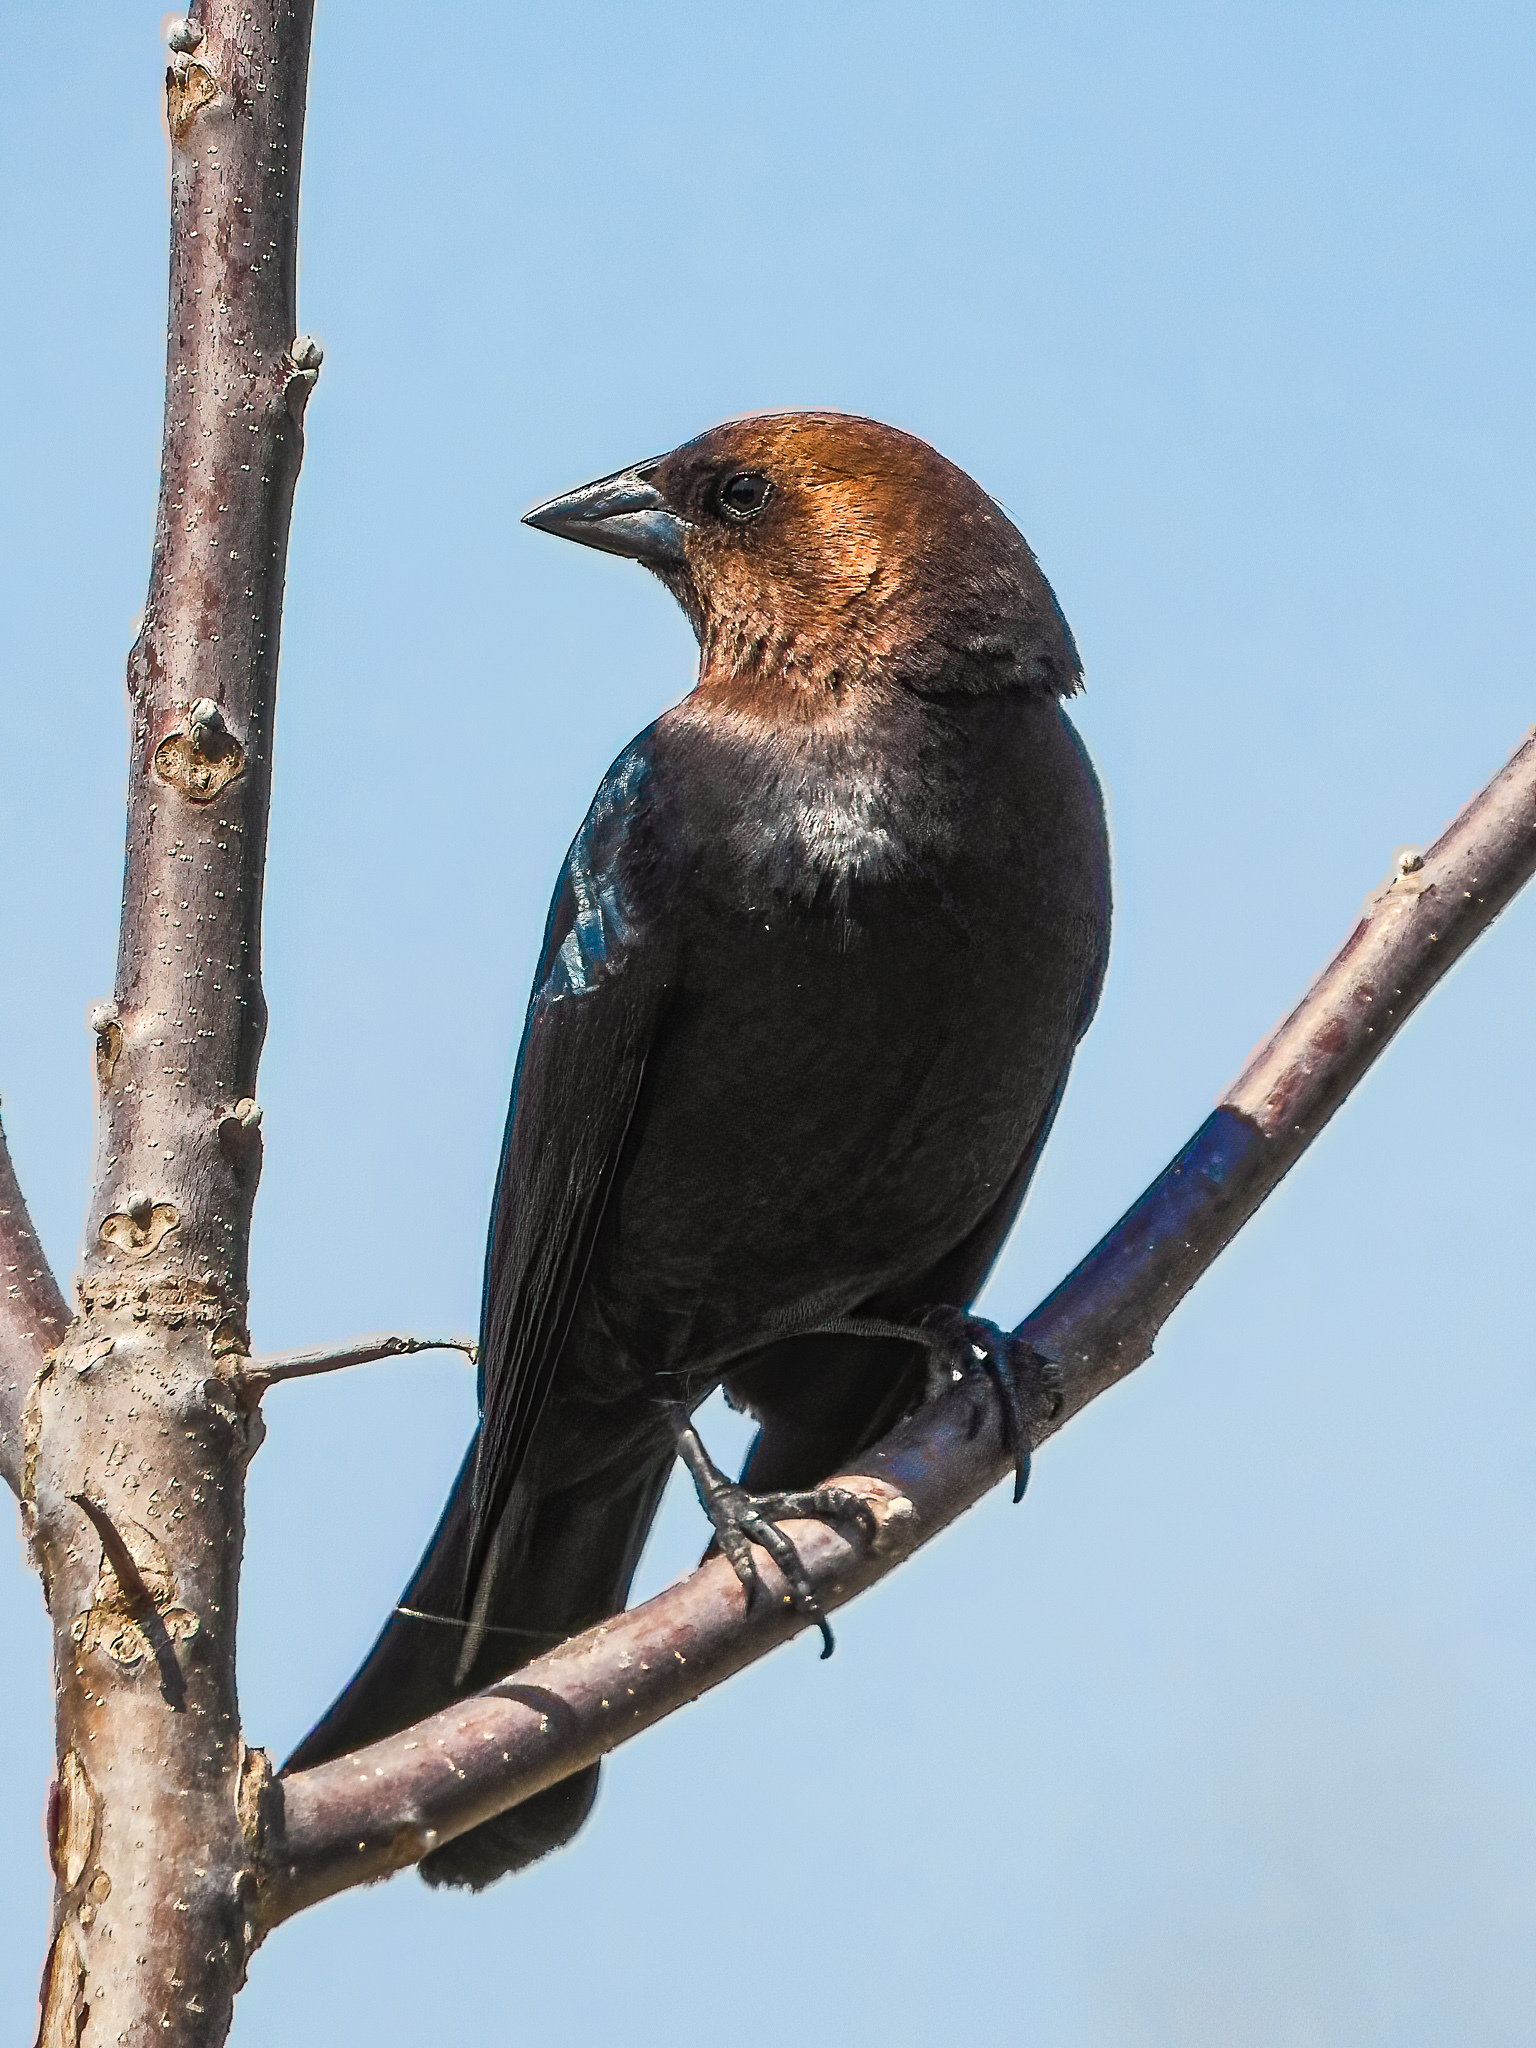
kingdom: Animalia
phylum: Chordata
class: Aves
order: Passeriformes
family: Icteridae
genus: Molothrus
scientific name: Molothrus ater
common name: Brown-headed cowbird
